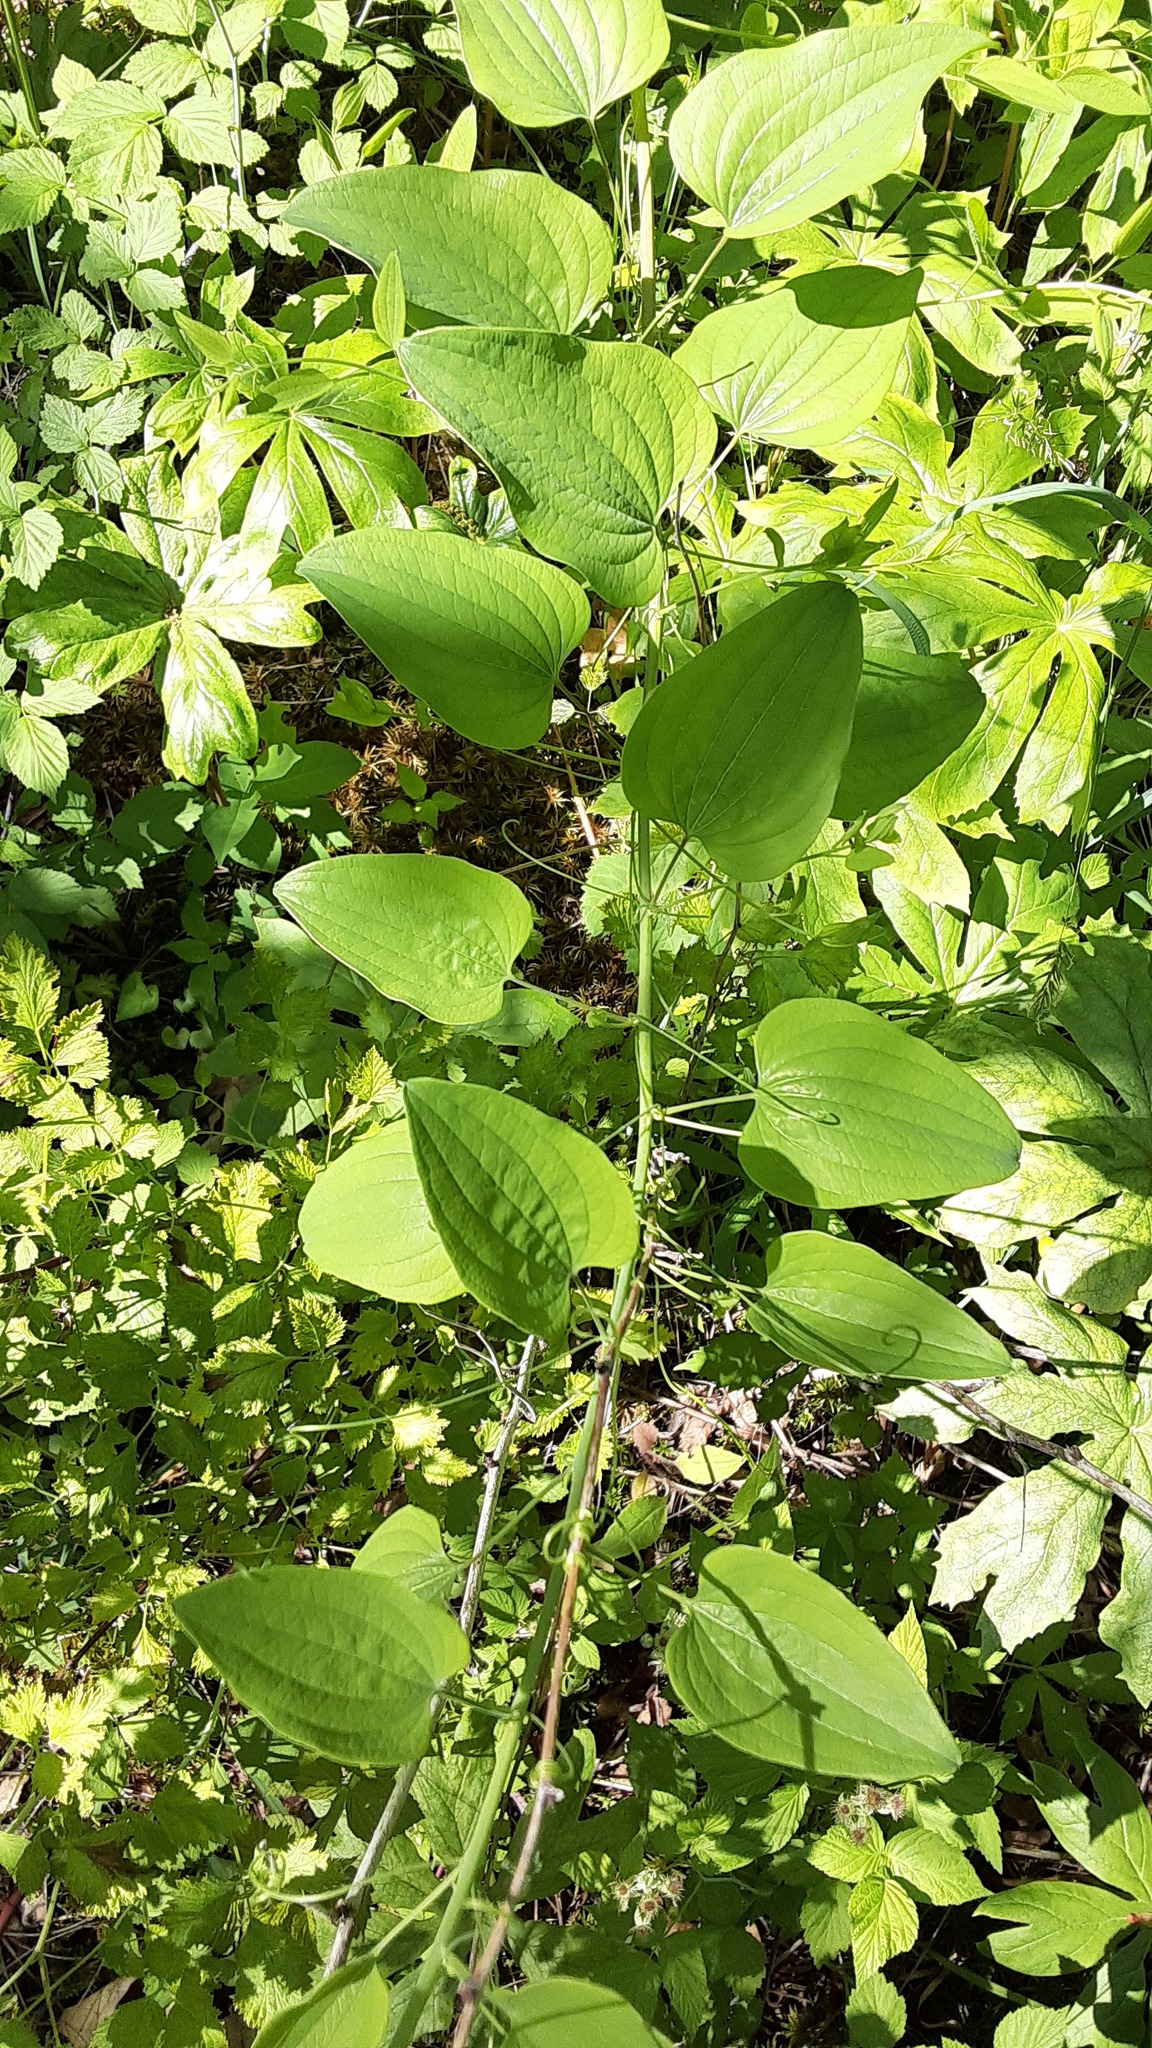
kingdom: Plantae
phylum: Tracheophyta
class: Liliopsida
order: Liliales
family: Smilacaceae
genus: Smilax
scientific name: Smilax herbacea
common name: Jacob's-ladder
